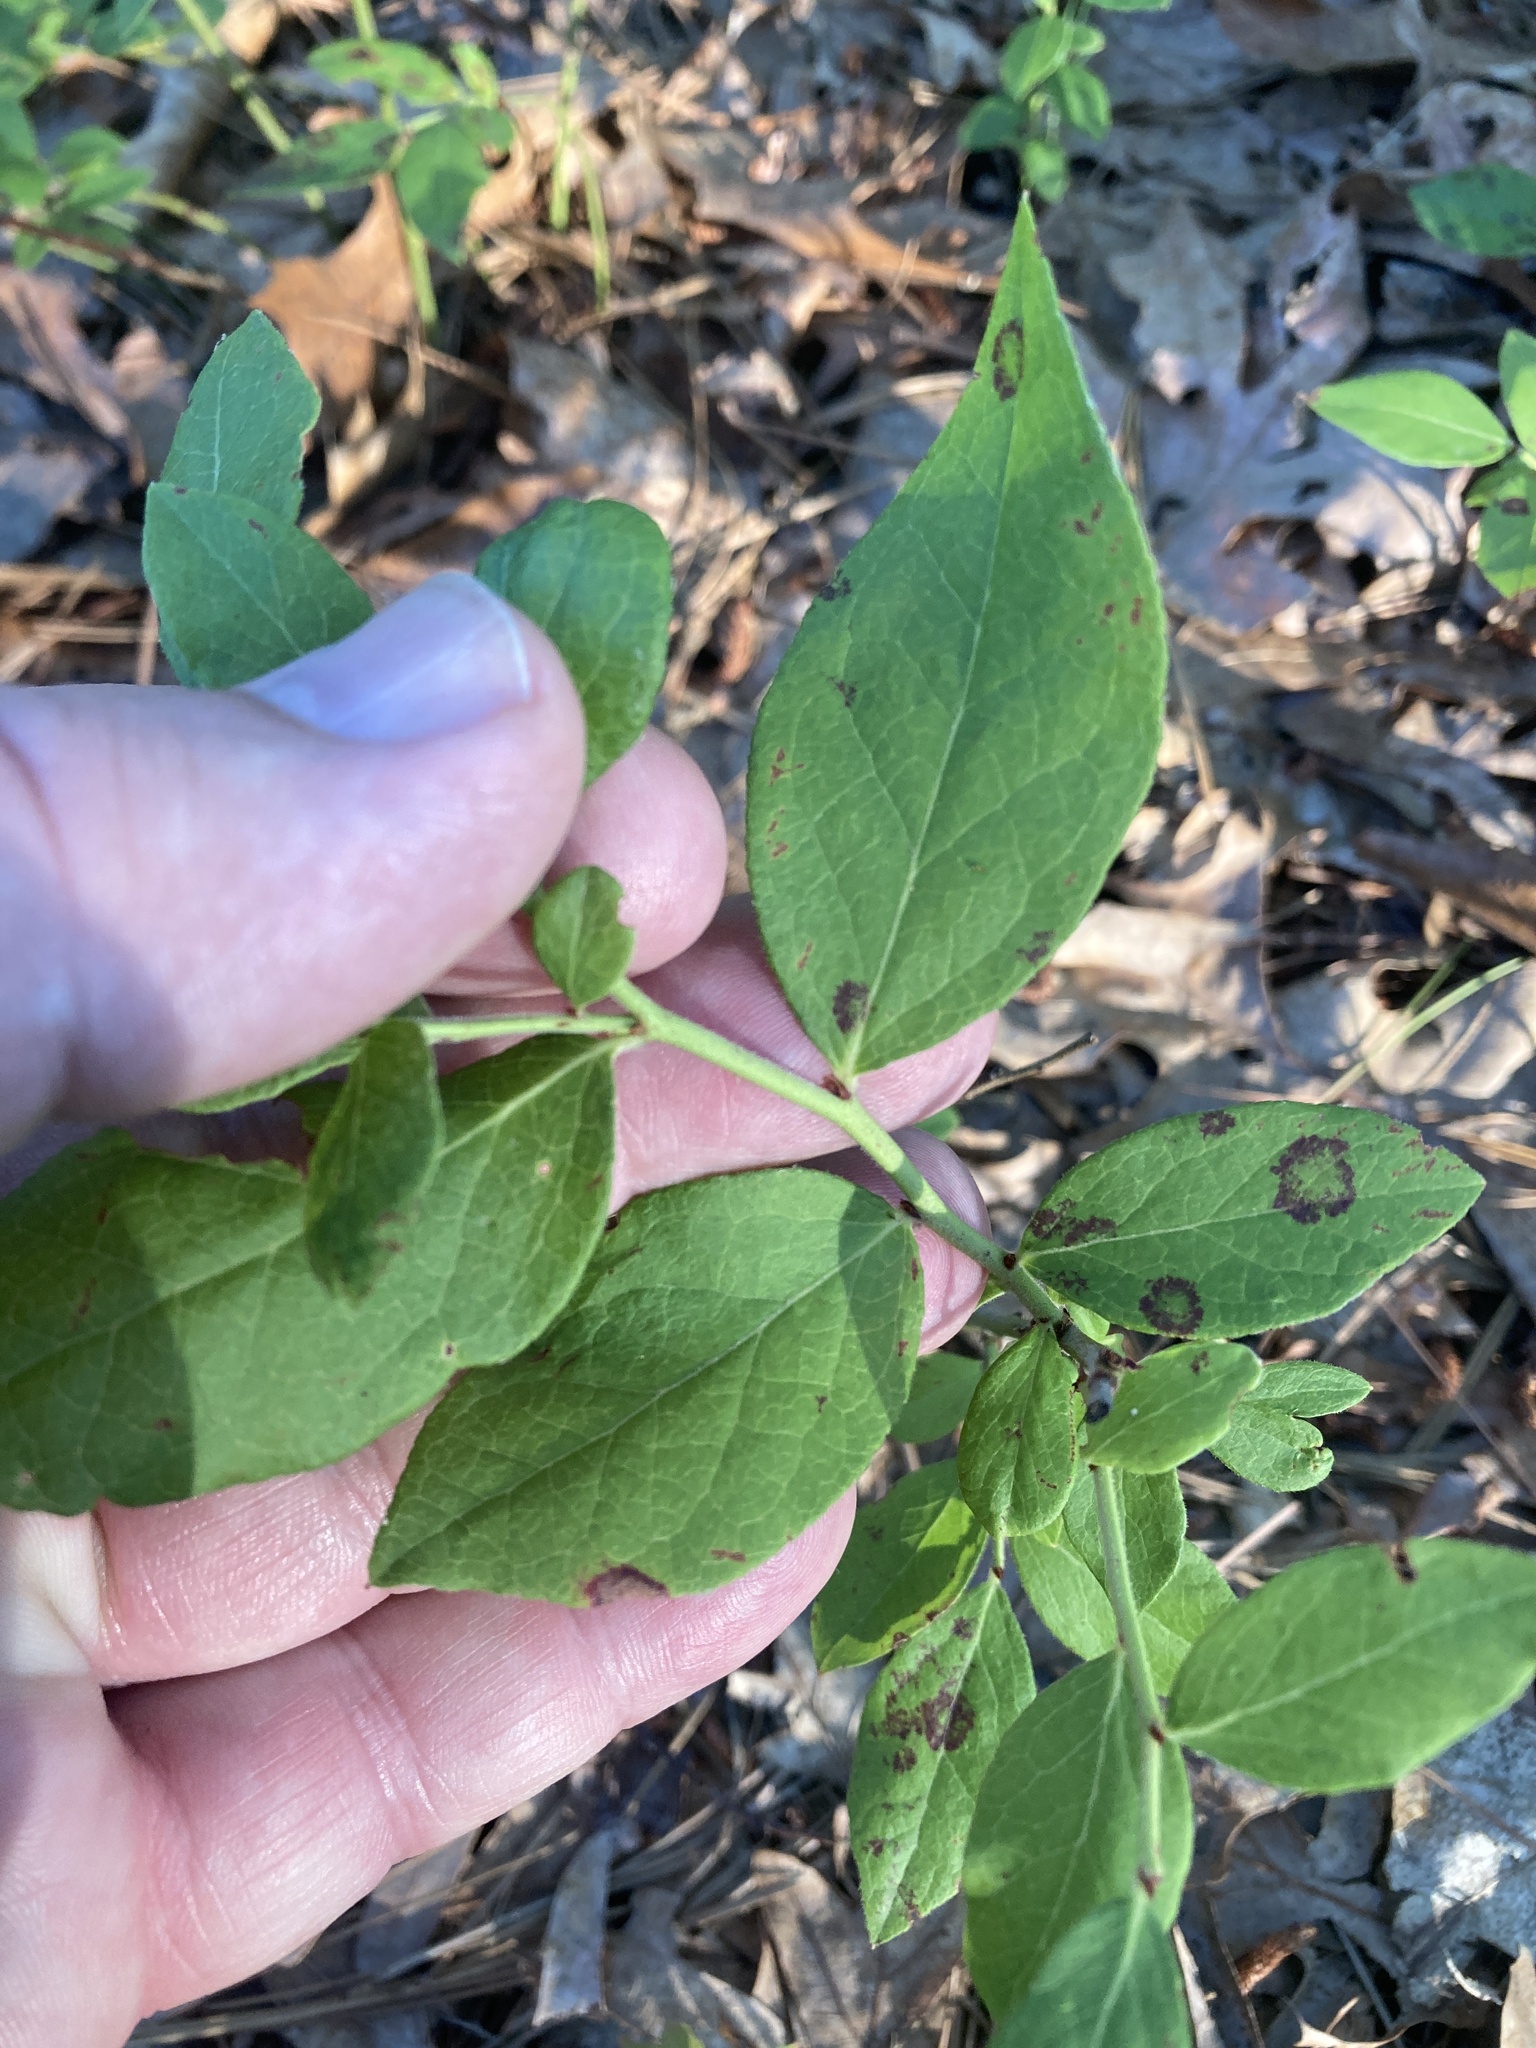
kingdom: Plantae
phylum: Tracheophyta
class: Magnoliopsida
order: Ericales
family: Ericaceae
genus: Vaccinium
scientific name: Vaccinium pallidum
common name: Blue ridge blueberry
